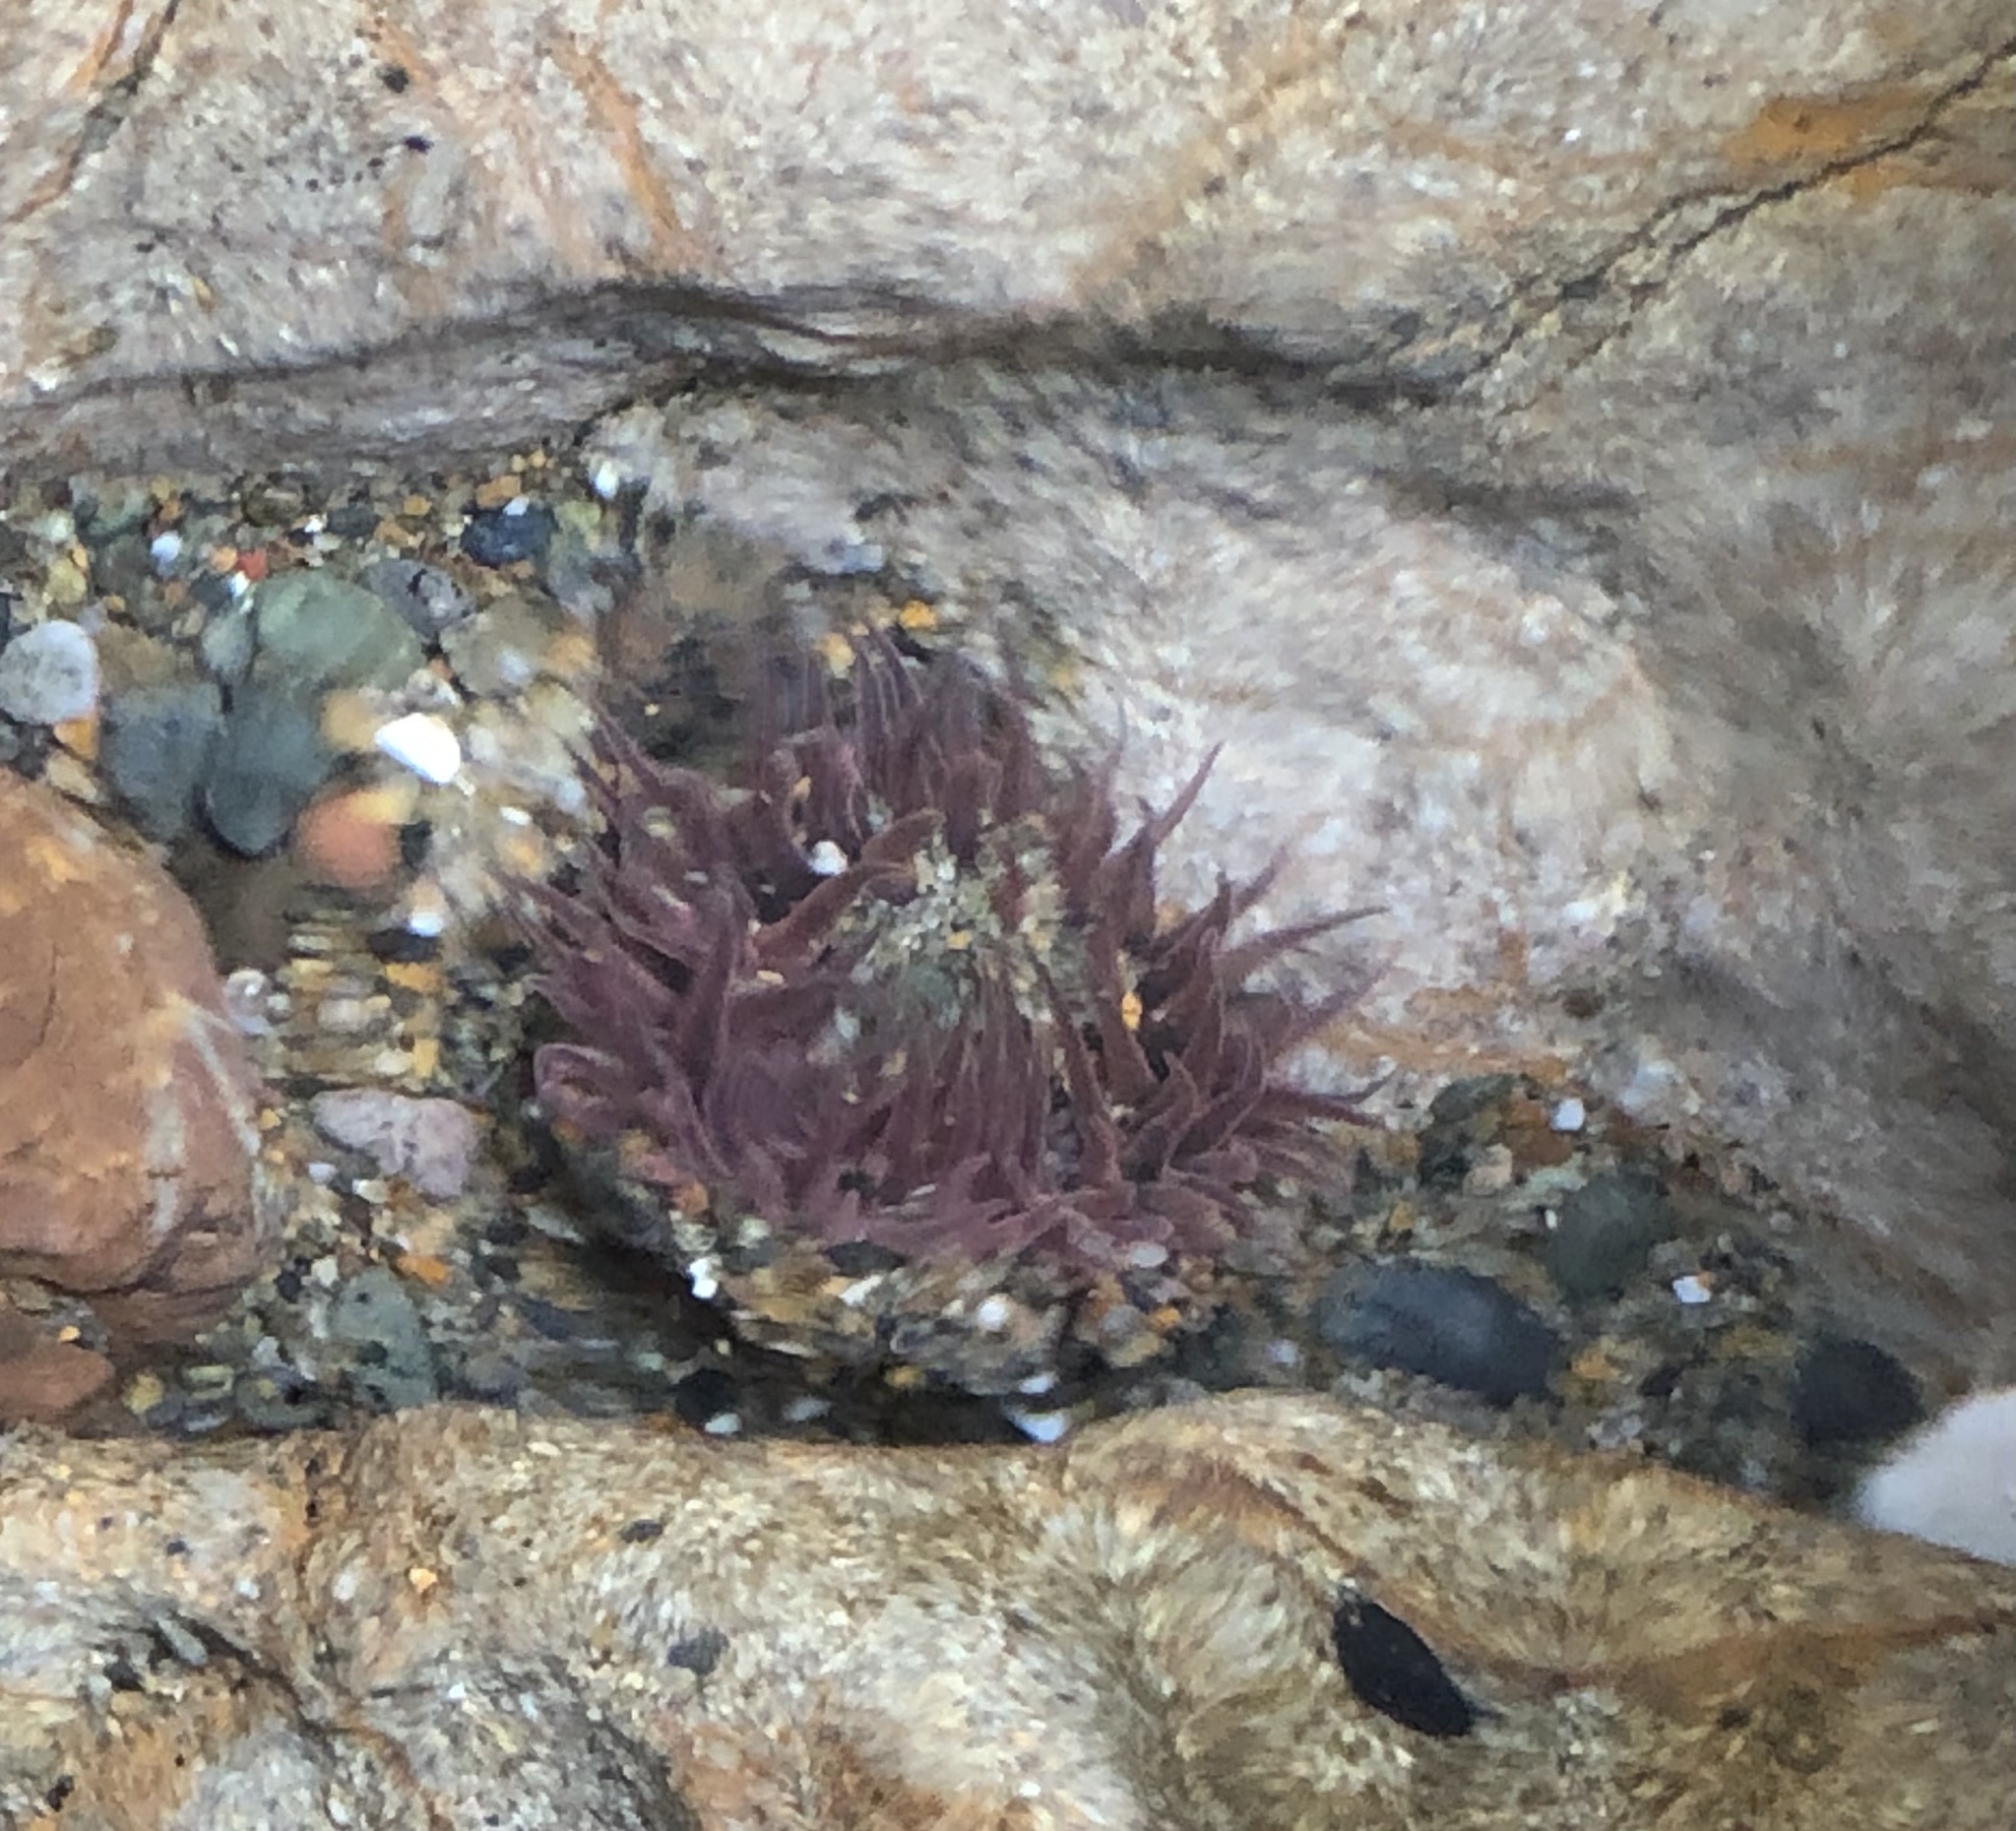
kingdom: Animalia
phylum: Cnidaria
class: Anthozoa
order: Actiniaria
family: Actiniidae
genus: Anthopleura
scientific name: Anthopleura artemisia
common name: Buried sea anemone
